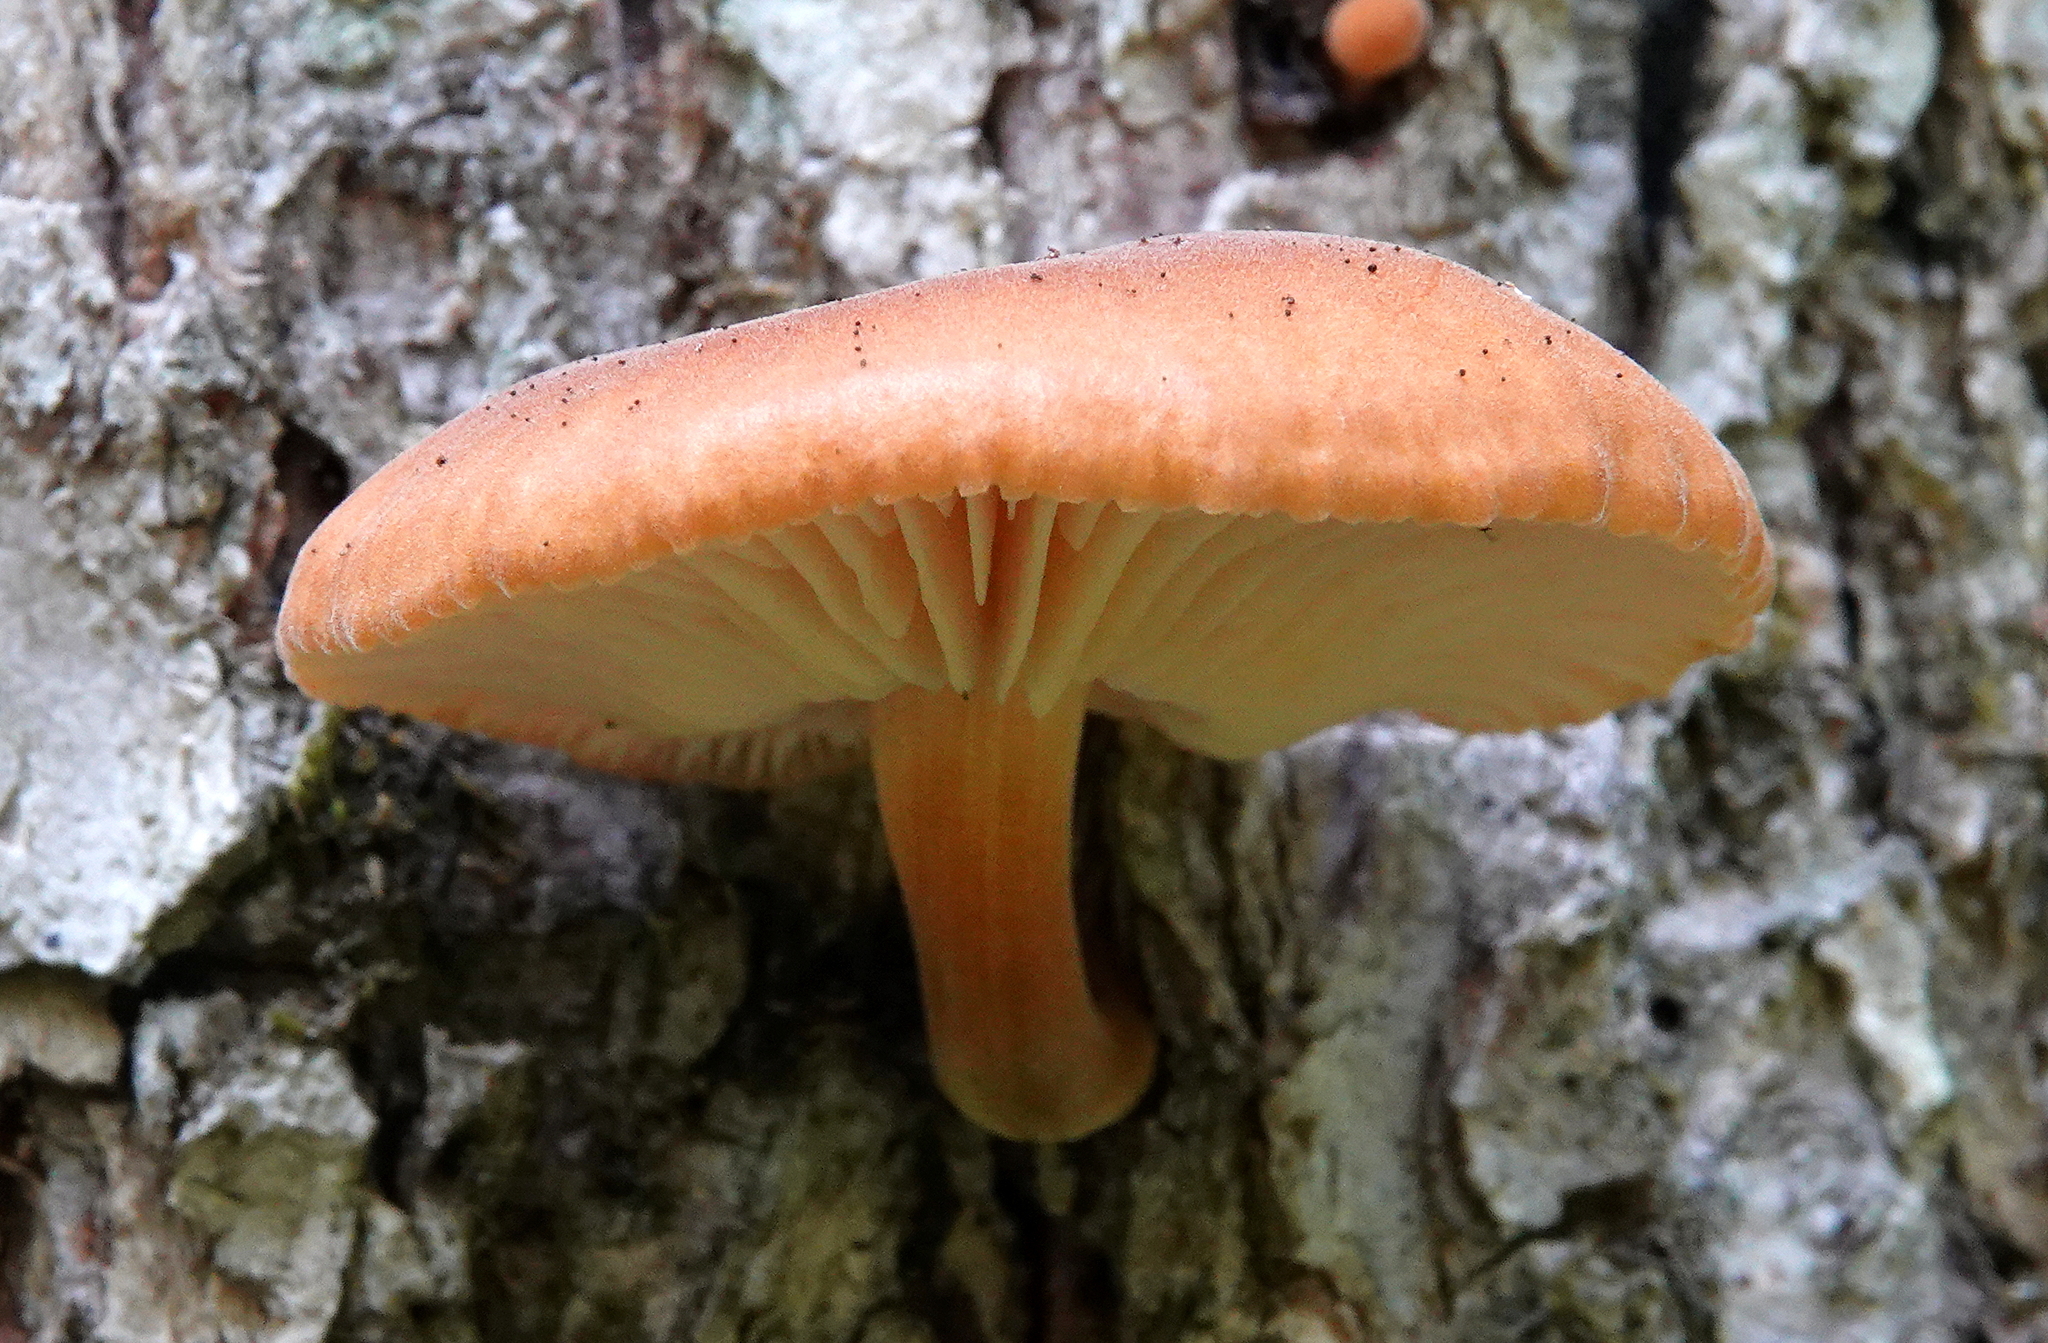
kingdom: Fungi
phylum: Basidiomycota
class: Agaricomycetes
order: Agaricales
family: Physalacriaceae
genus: Flammulina
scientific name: Flammulina velutipes
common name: Velvet shank
